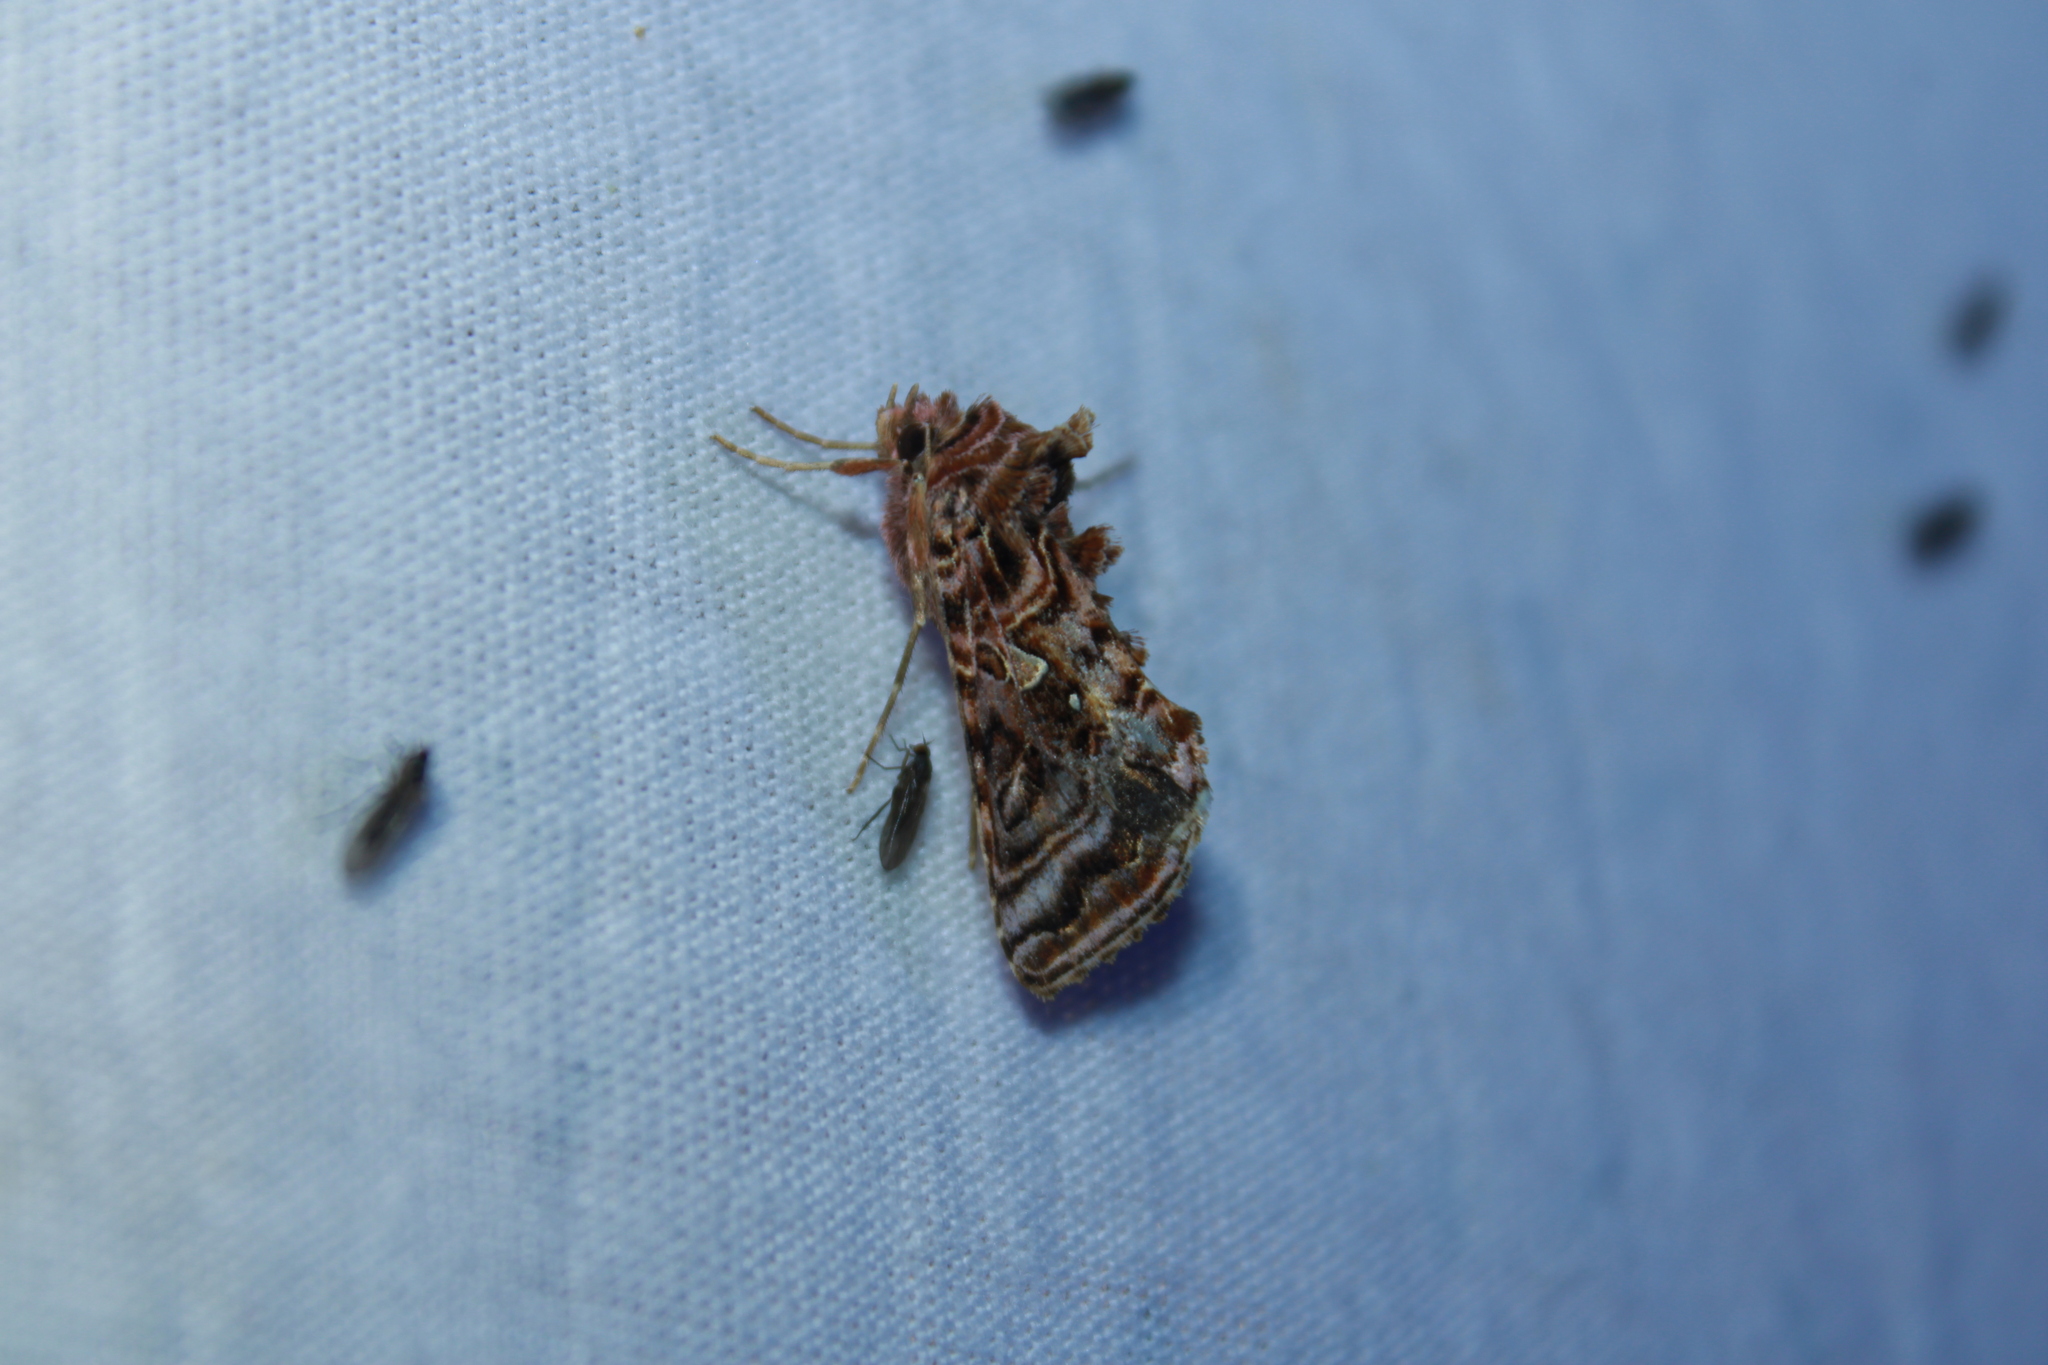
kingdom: Animalia
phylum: Arthropoda
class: Insecta
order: Lepidoptera
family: Noctuidae
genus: Autographa
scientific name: Autographa mappa
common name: Wavy chestnut y moth
